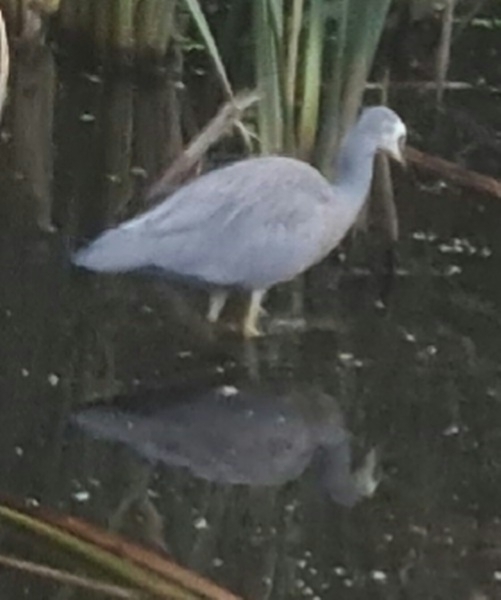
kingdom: Animalia
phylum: Chordata
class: Aves
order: Pelecaniformes
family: Ardeidae
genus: Egretta
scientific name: Egretta novaehollandiae
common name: White-faced heron
